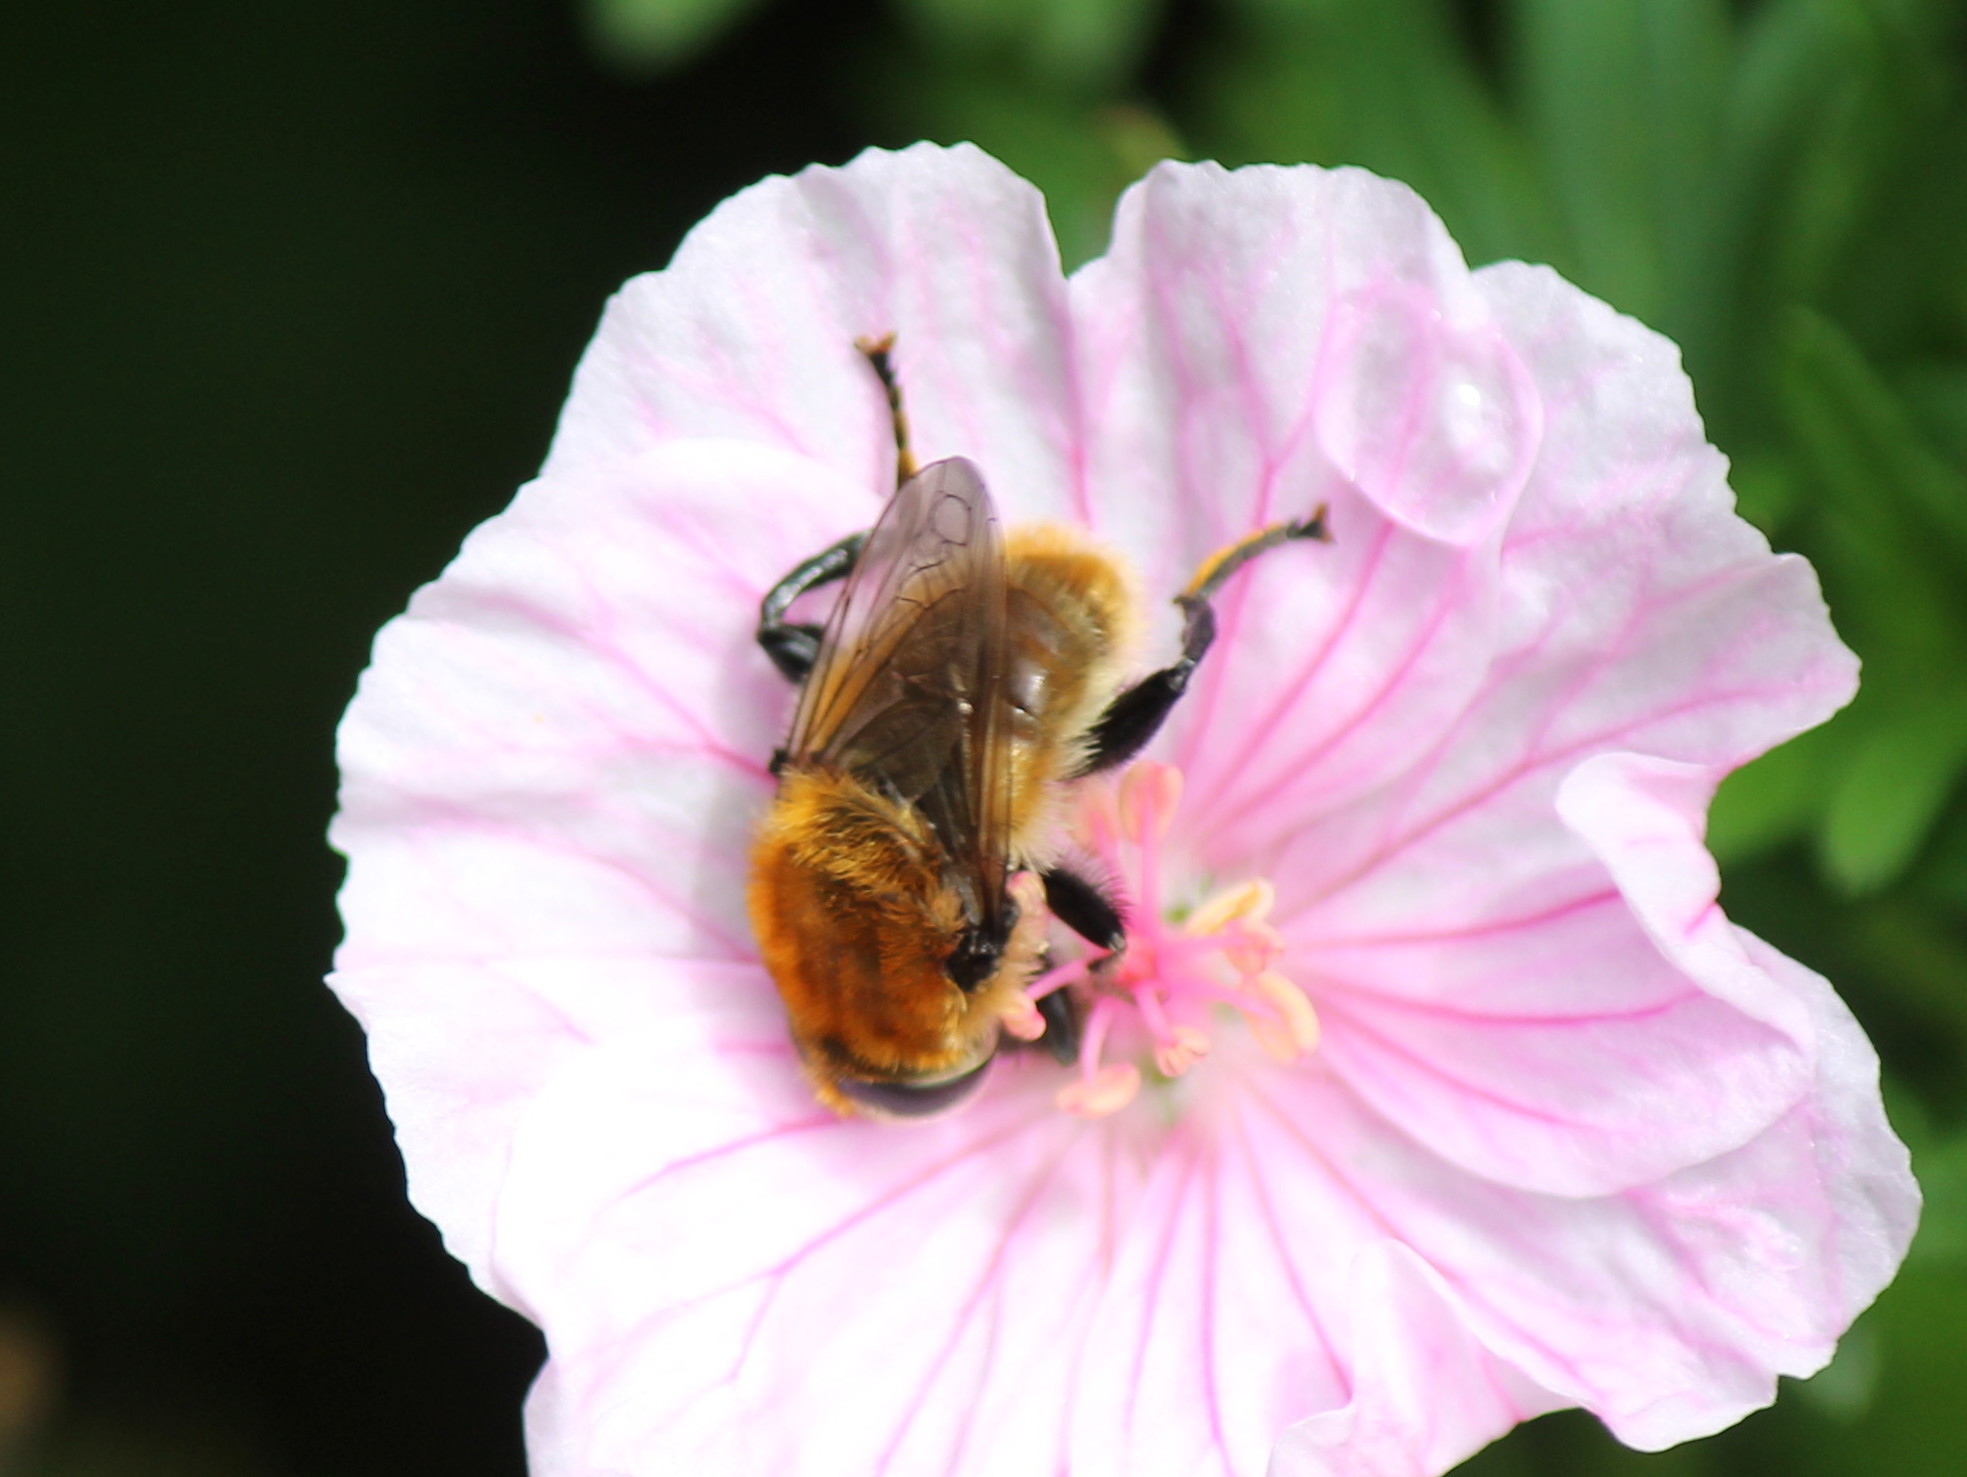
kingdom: Animalia
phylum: Arthropoda
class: Insecta
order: Diptera
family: Syrphidae
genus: Merodon
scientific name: Merodon equestris
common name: Greater bulb-fly
